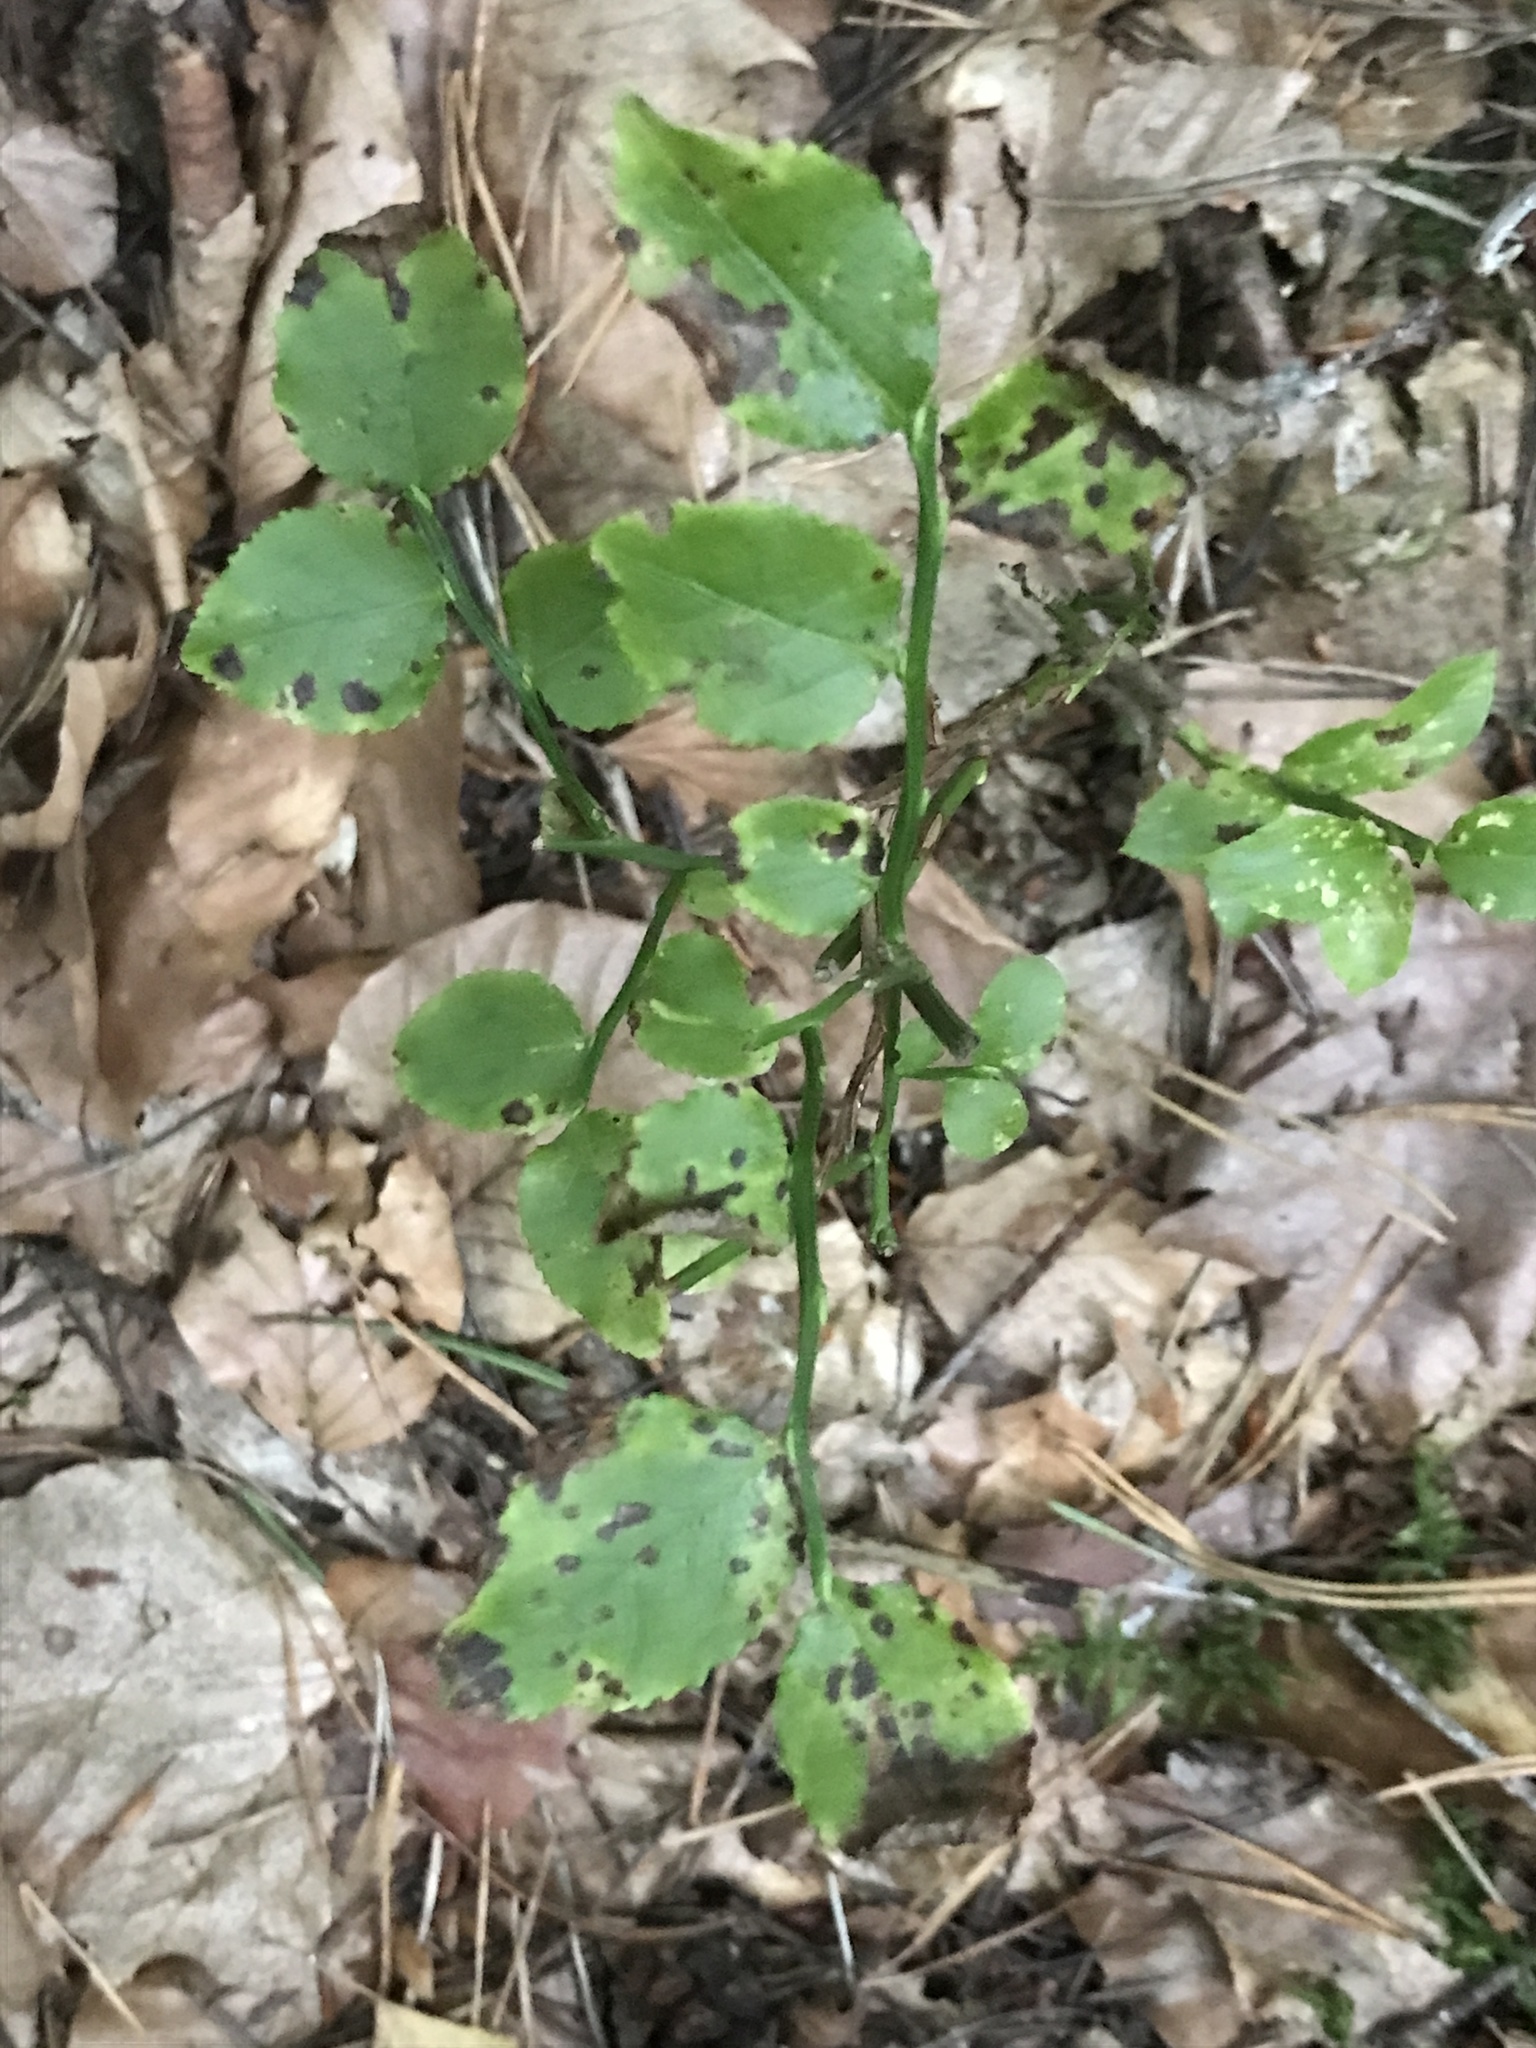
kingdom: Plantae
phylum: Tracheophyta
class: Magnoliopsida
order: Ericales
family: Ericaceae
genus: Vaccinium
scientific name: Vaccinium myrtillus
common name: Bilberry
